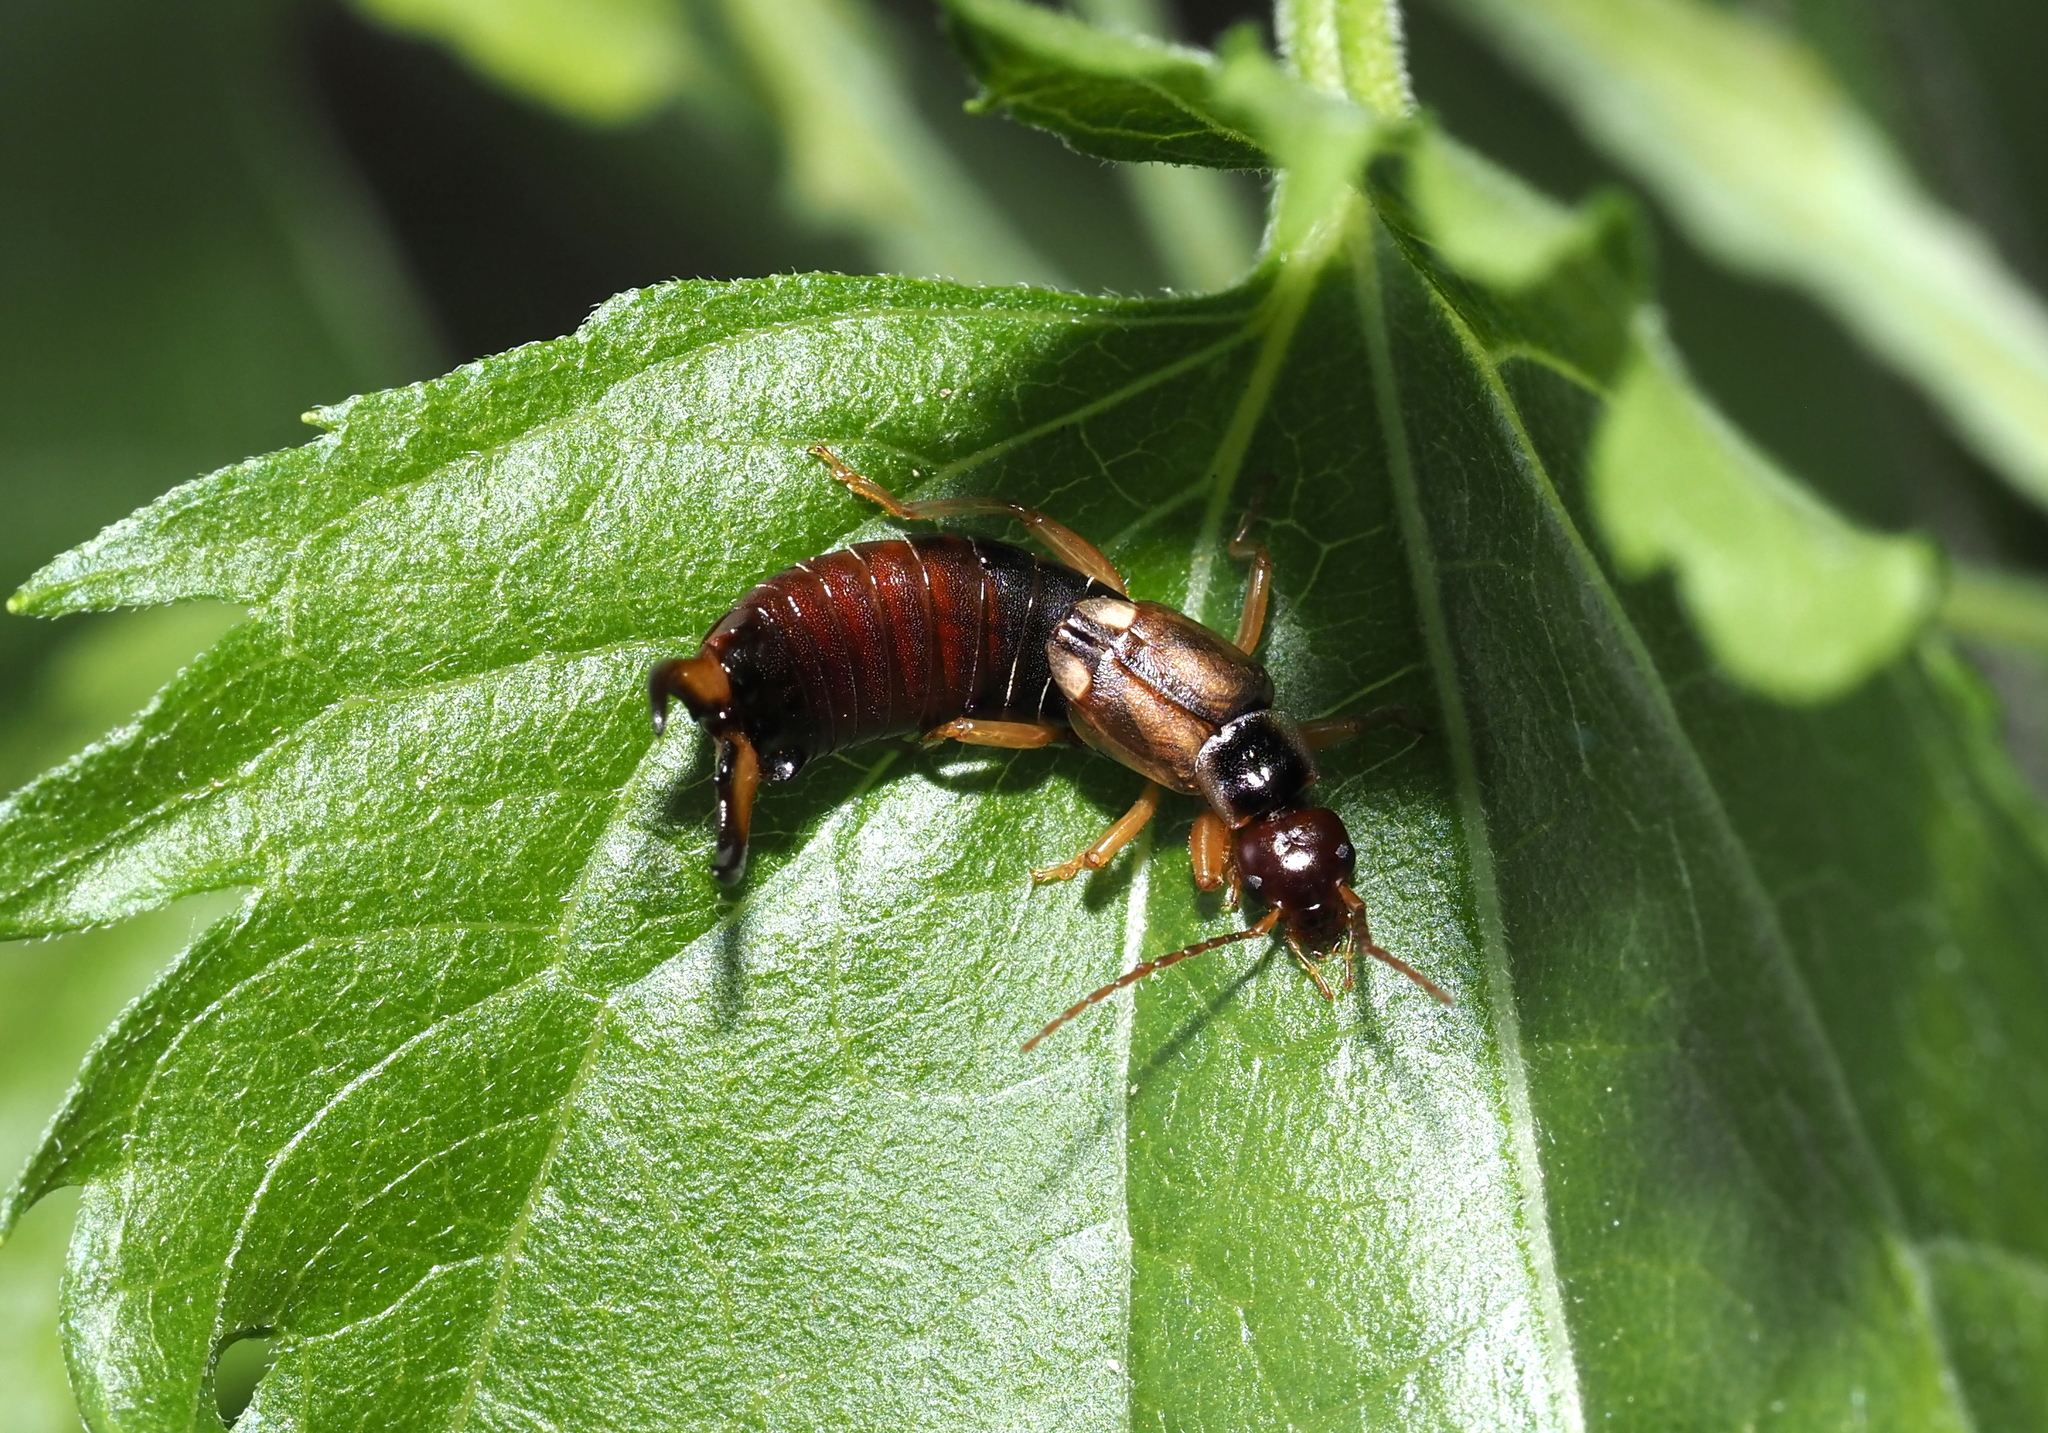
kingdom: Animalia
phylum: Arthropoda
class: Insecta
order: Dermaptera
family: Forficulidae
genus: Forficula
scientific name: Forficula
